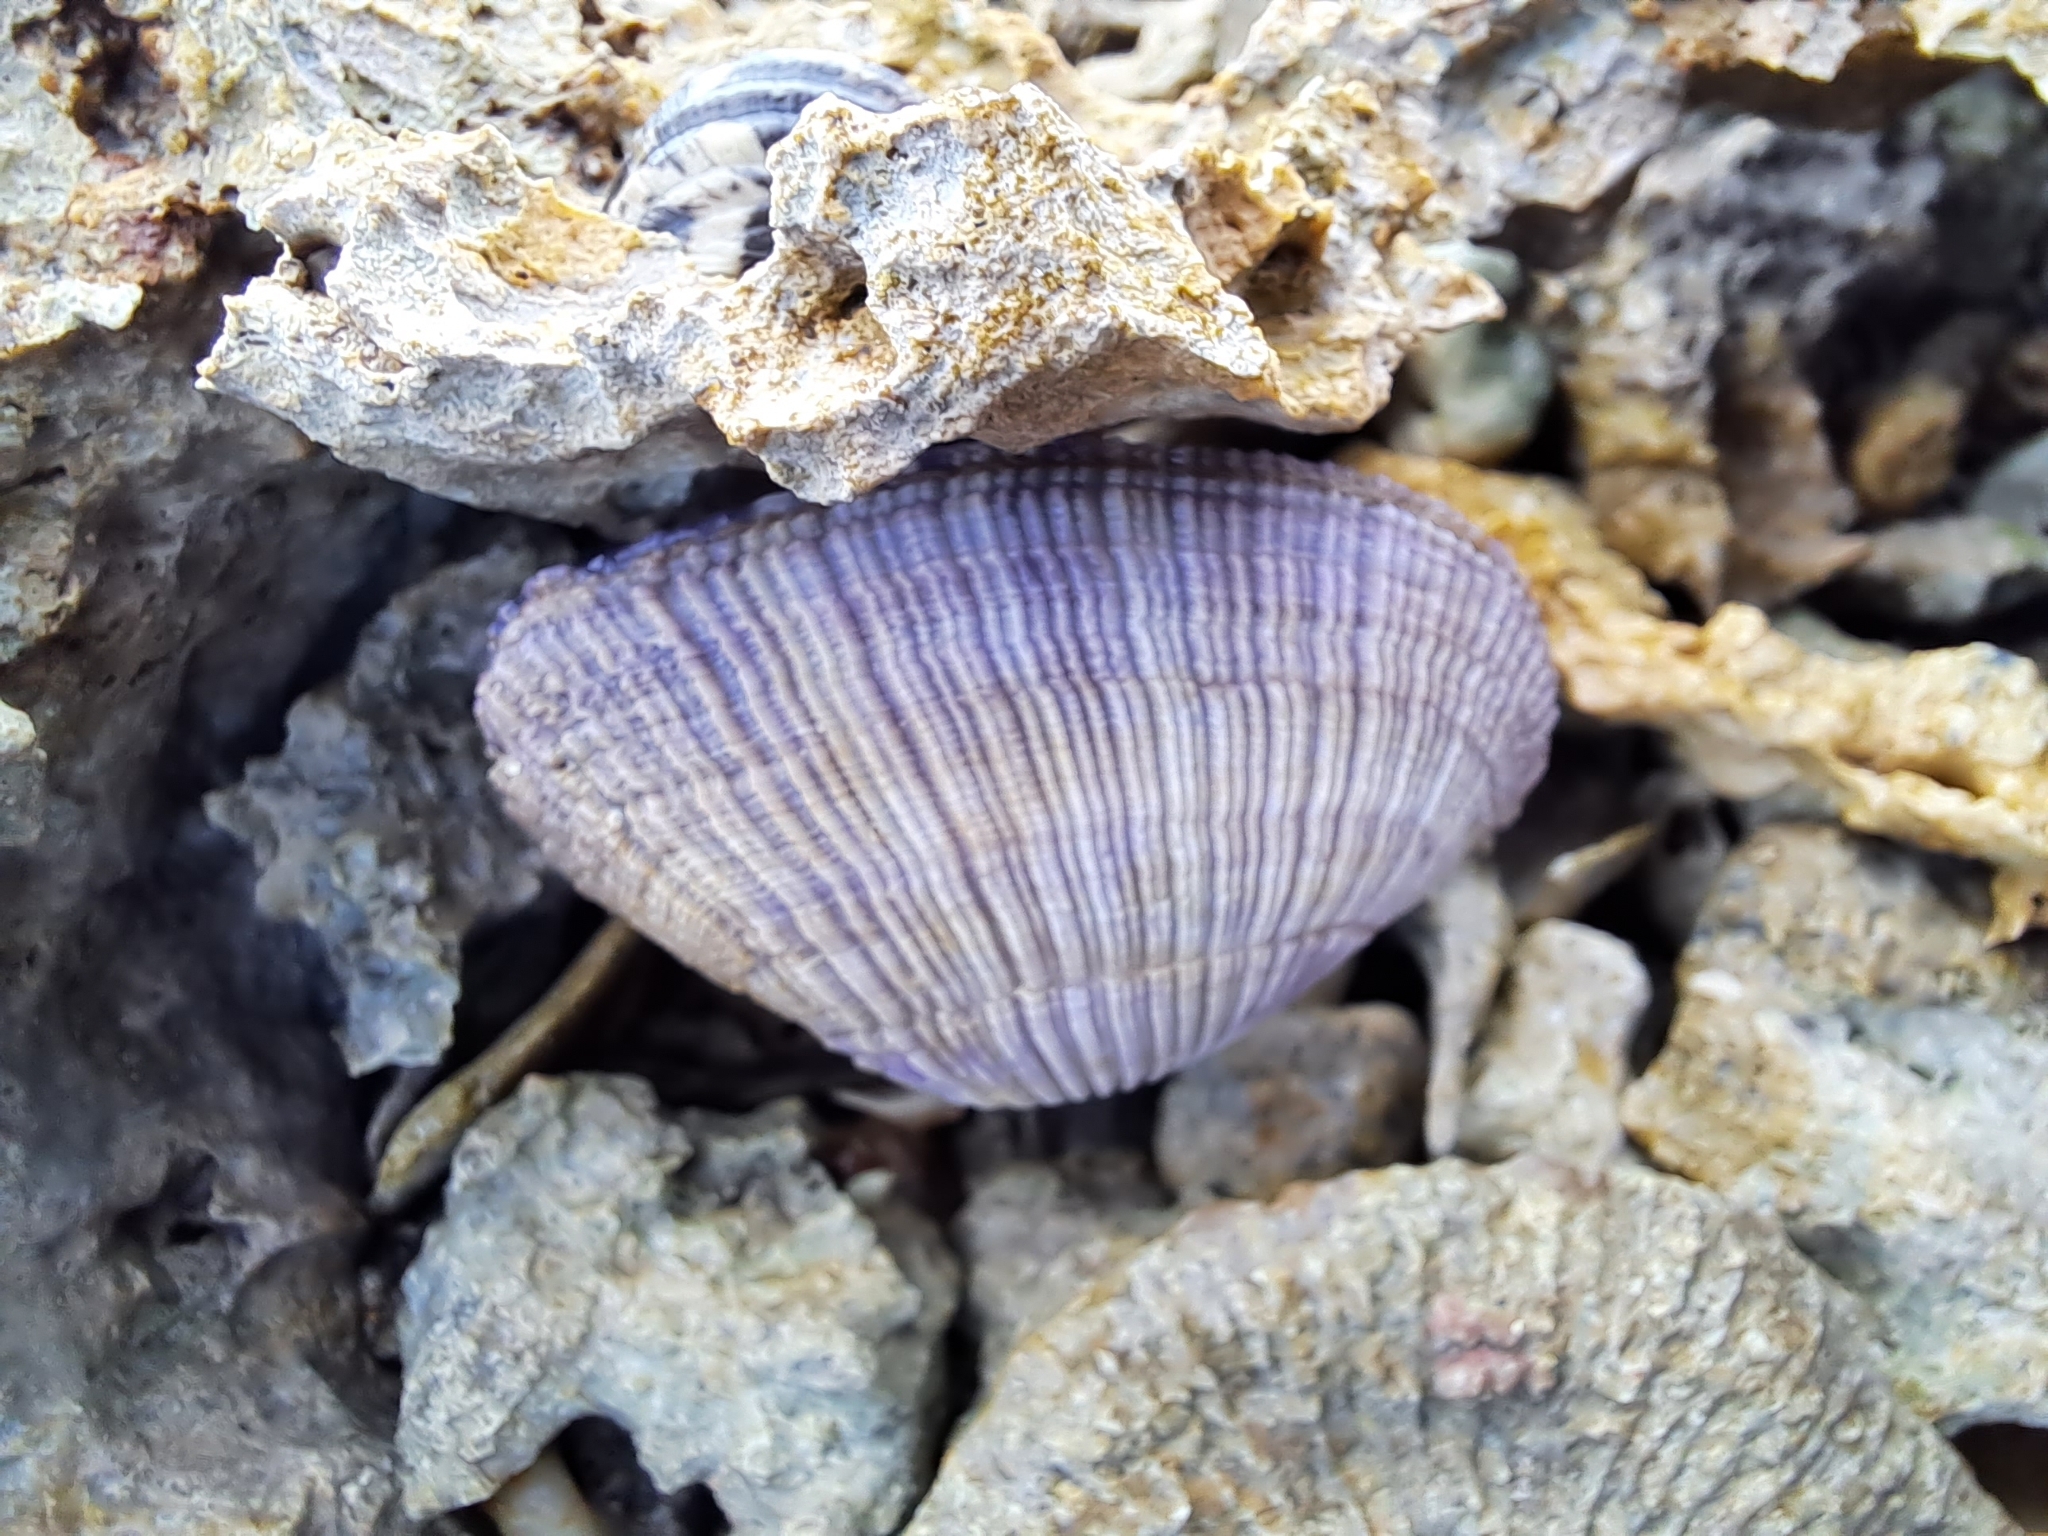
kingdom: Animalia
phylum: Mollusca
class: Bivalvia
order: Cardiida
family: Psammobiidae
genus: Asaphis
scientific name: Asaphis violascens
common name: Pacific asaphis
